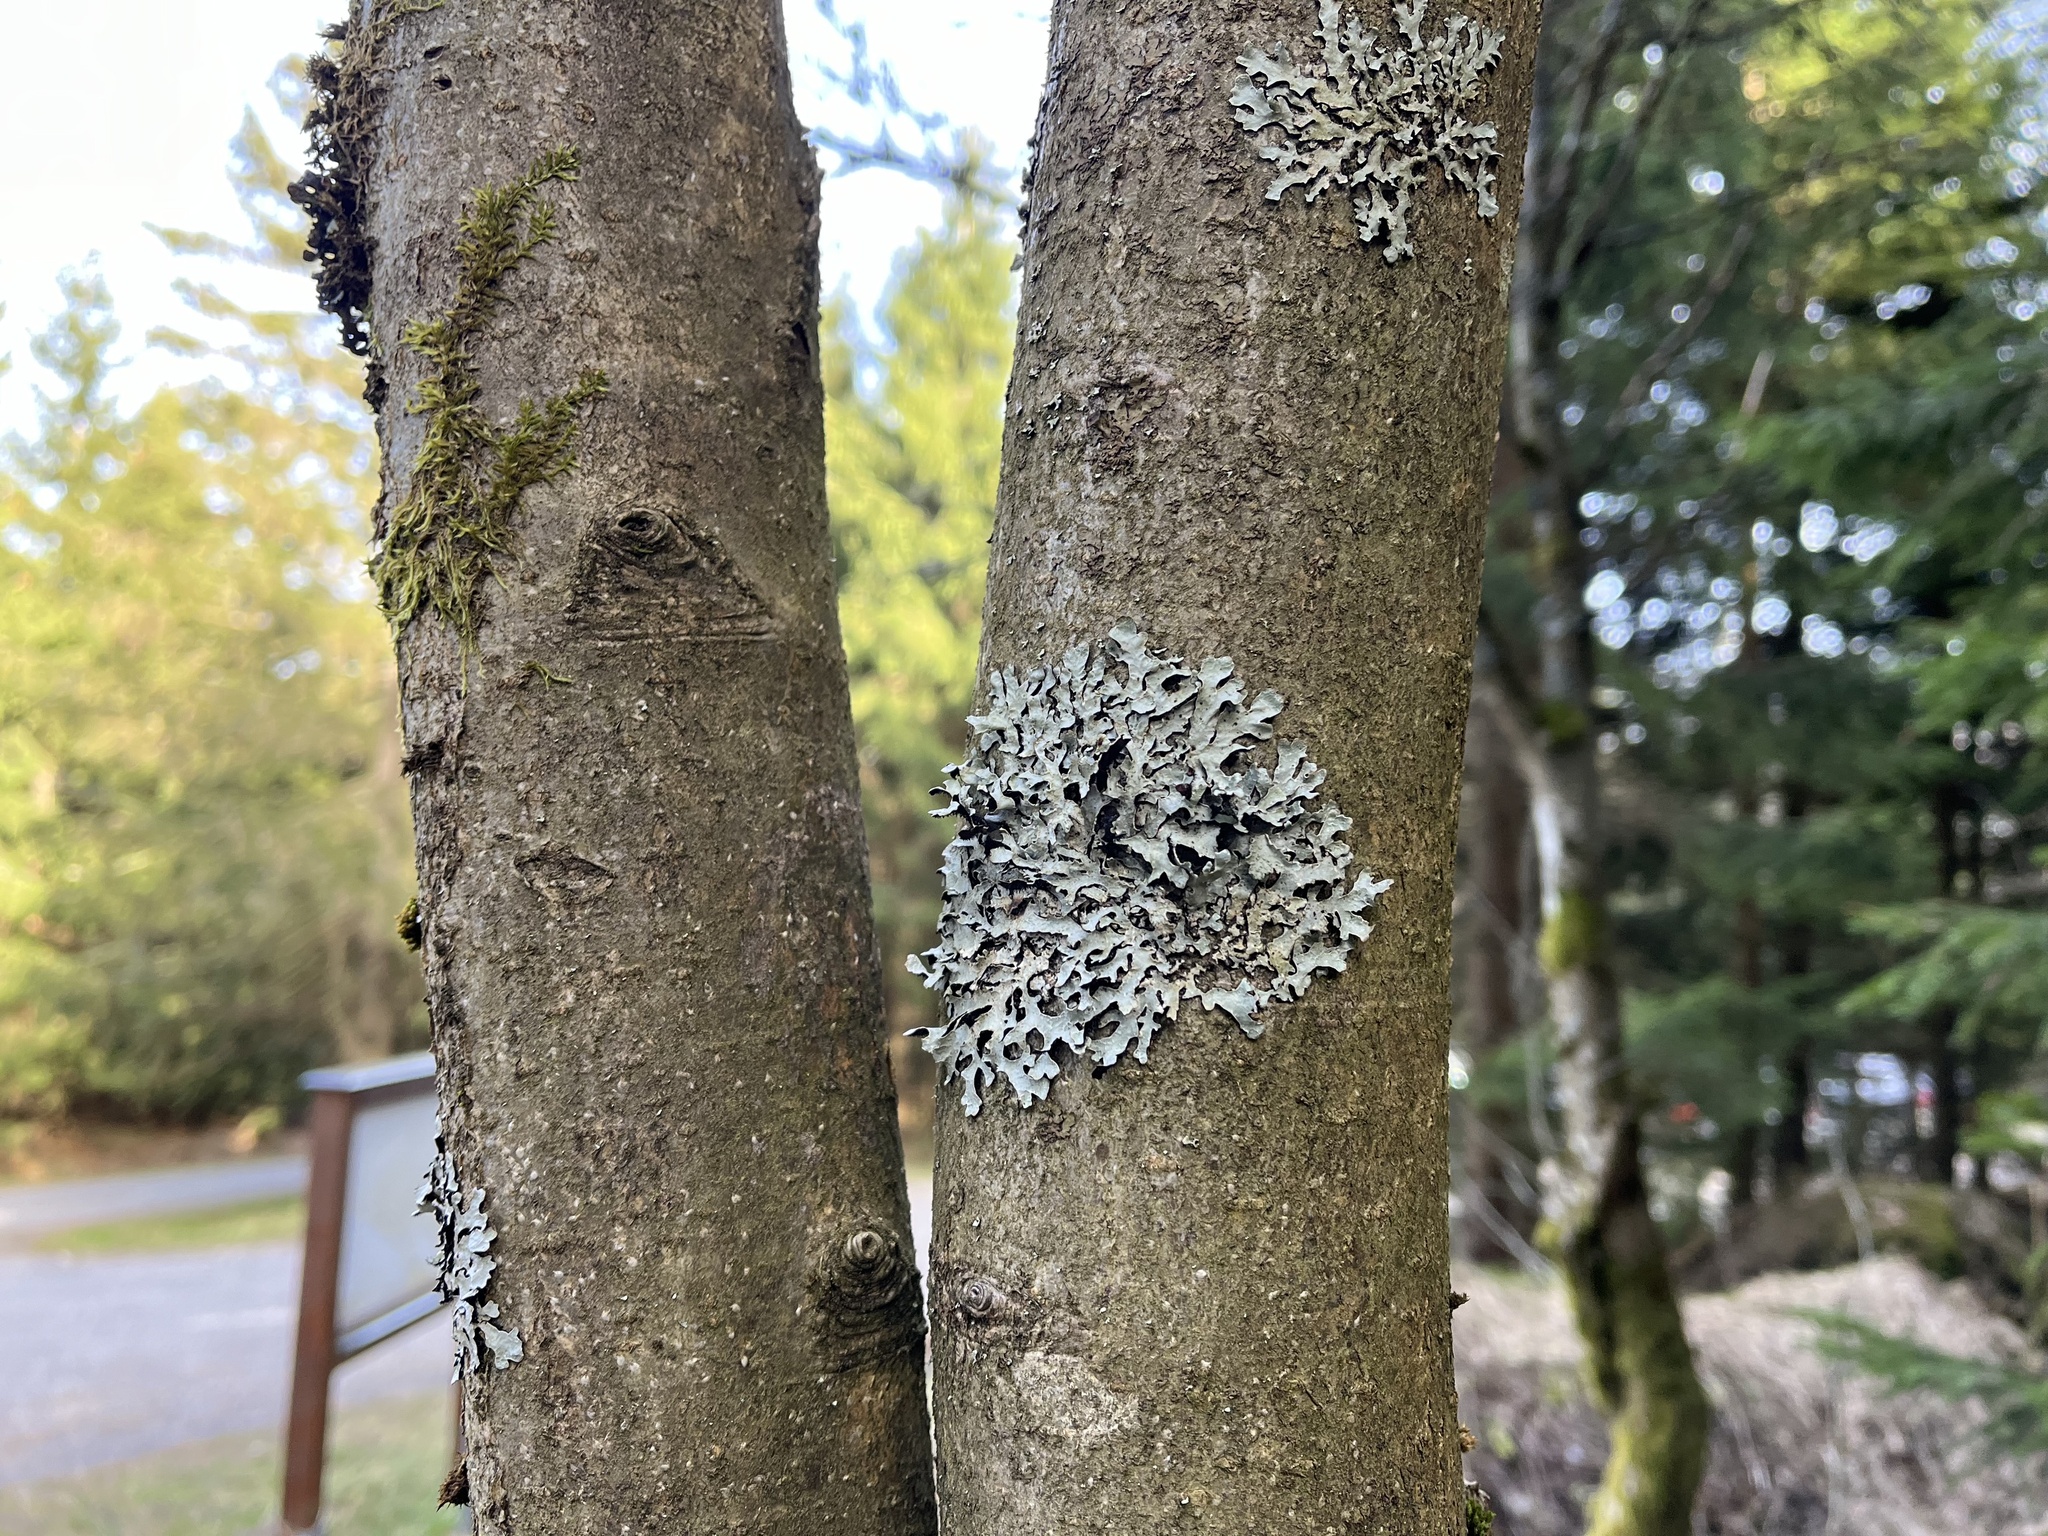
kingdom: Fungi
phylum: Ascomycota
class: Lecanoromycetes
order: Lecanorales
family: Parmeliaceae
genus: Parmelia
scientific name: Parmelia sulcata
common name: Netted shield lichen
